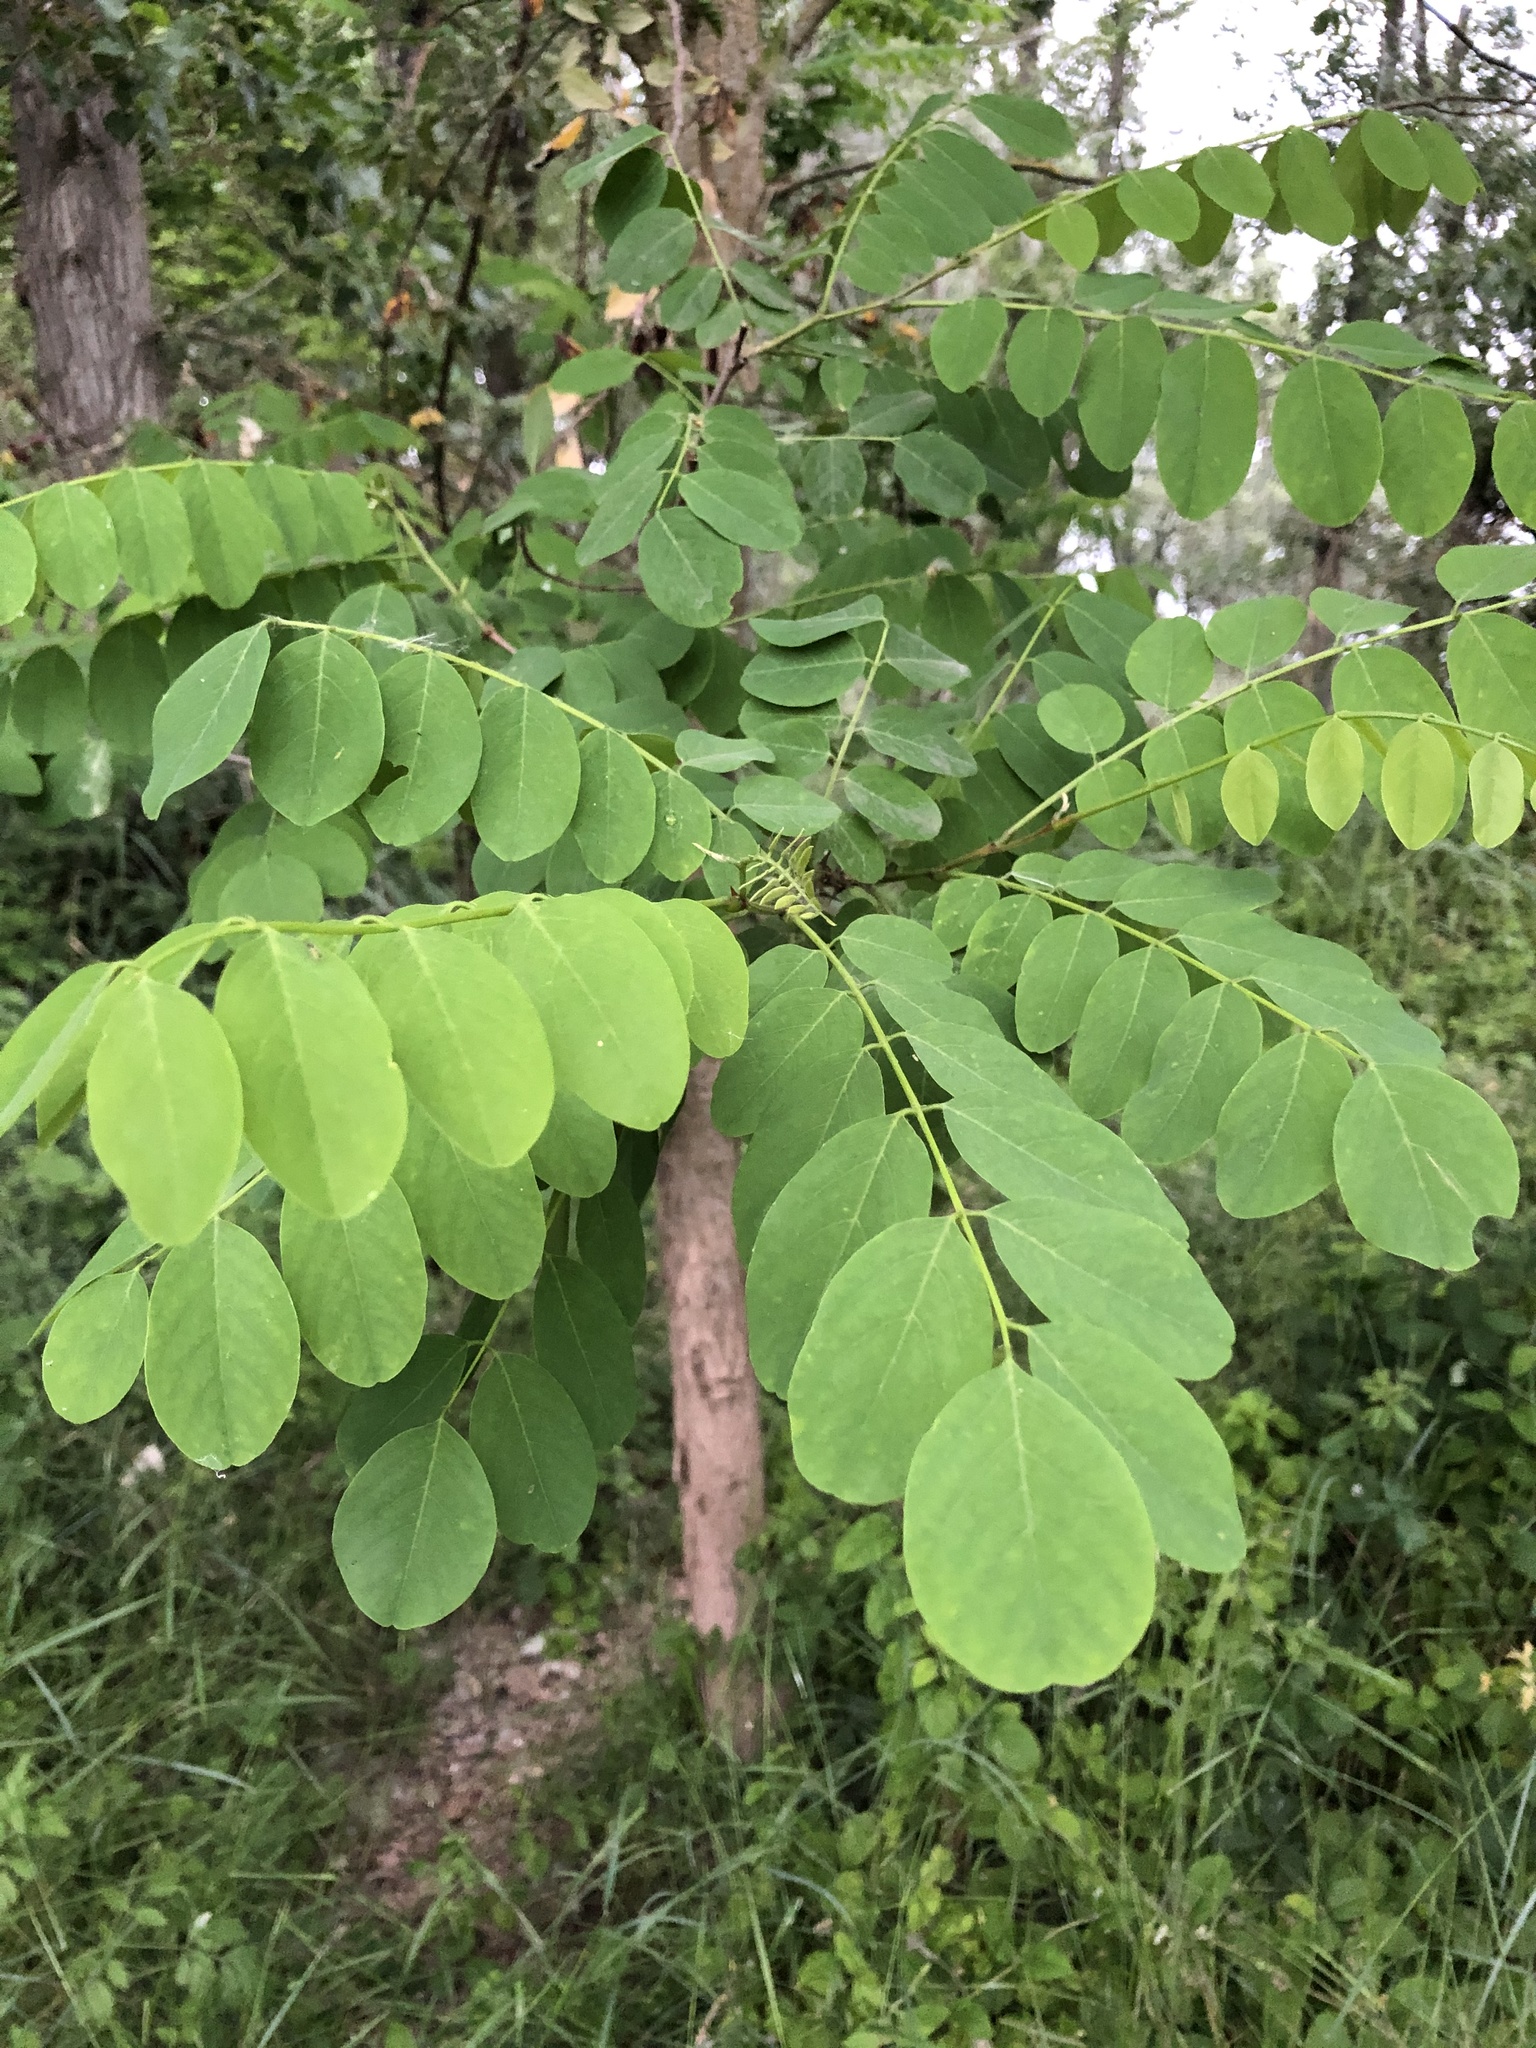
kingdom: Plantae
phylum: Tracheophyta
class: Magnoliopsida
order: Fabales
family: Fabaceae
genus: Robinia
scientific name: Robinia pseudoacacia
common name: Black locust
